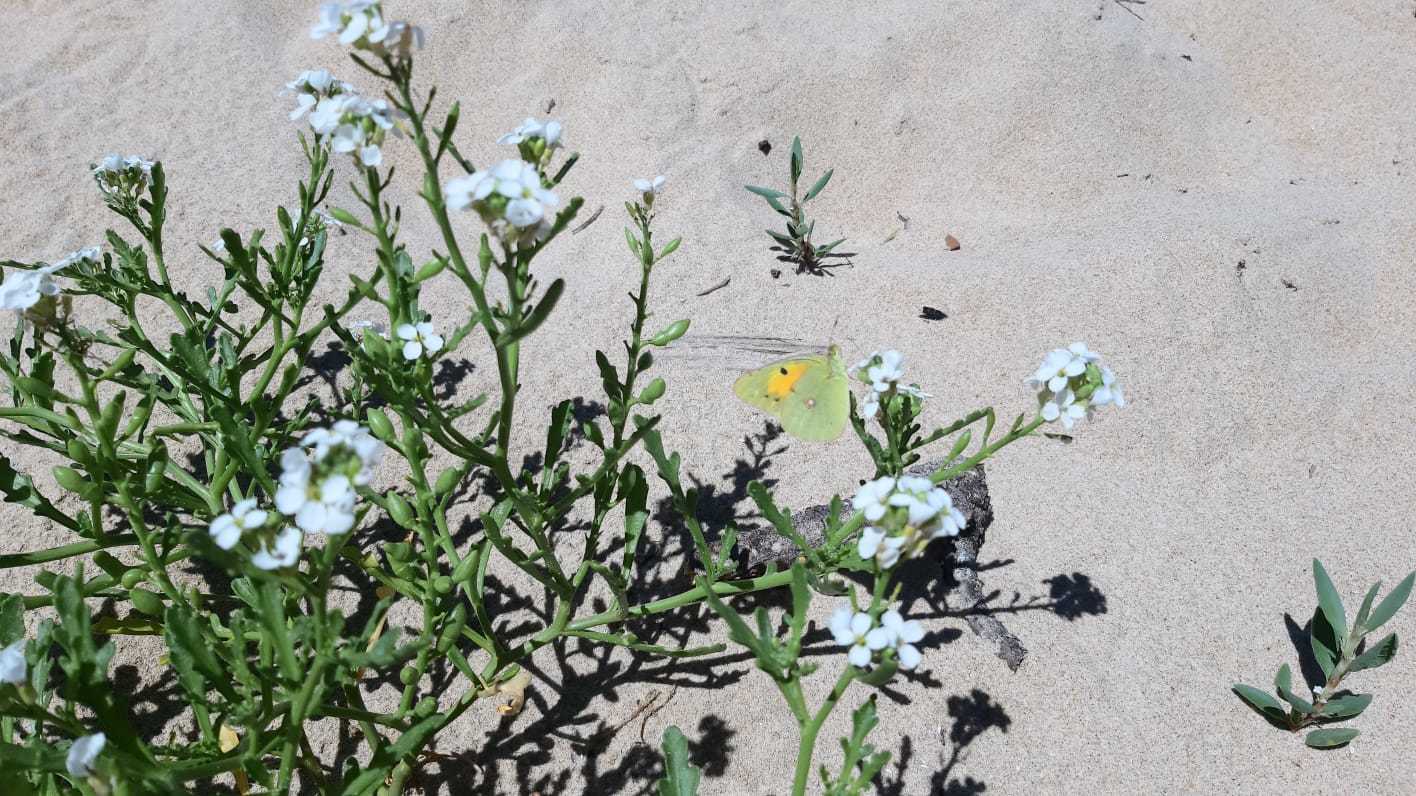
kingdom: Plantae
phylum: Tracheophyta
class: Magnoliopsida
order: Brassicales
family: Brassicaceae
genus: Cakile
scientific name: Cakile maritima
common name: Sea rocket
